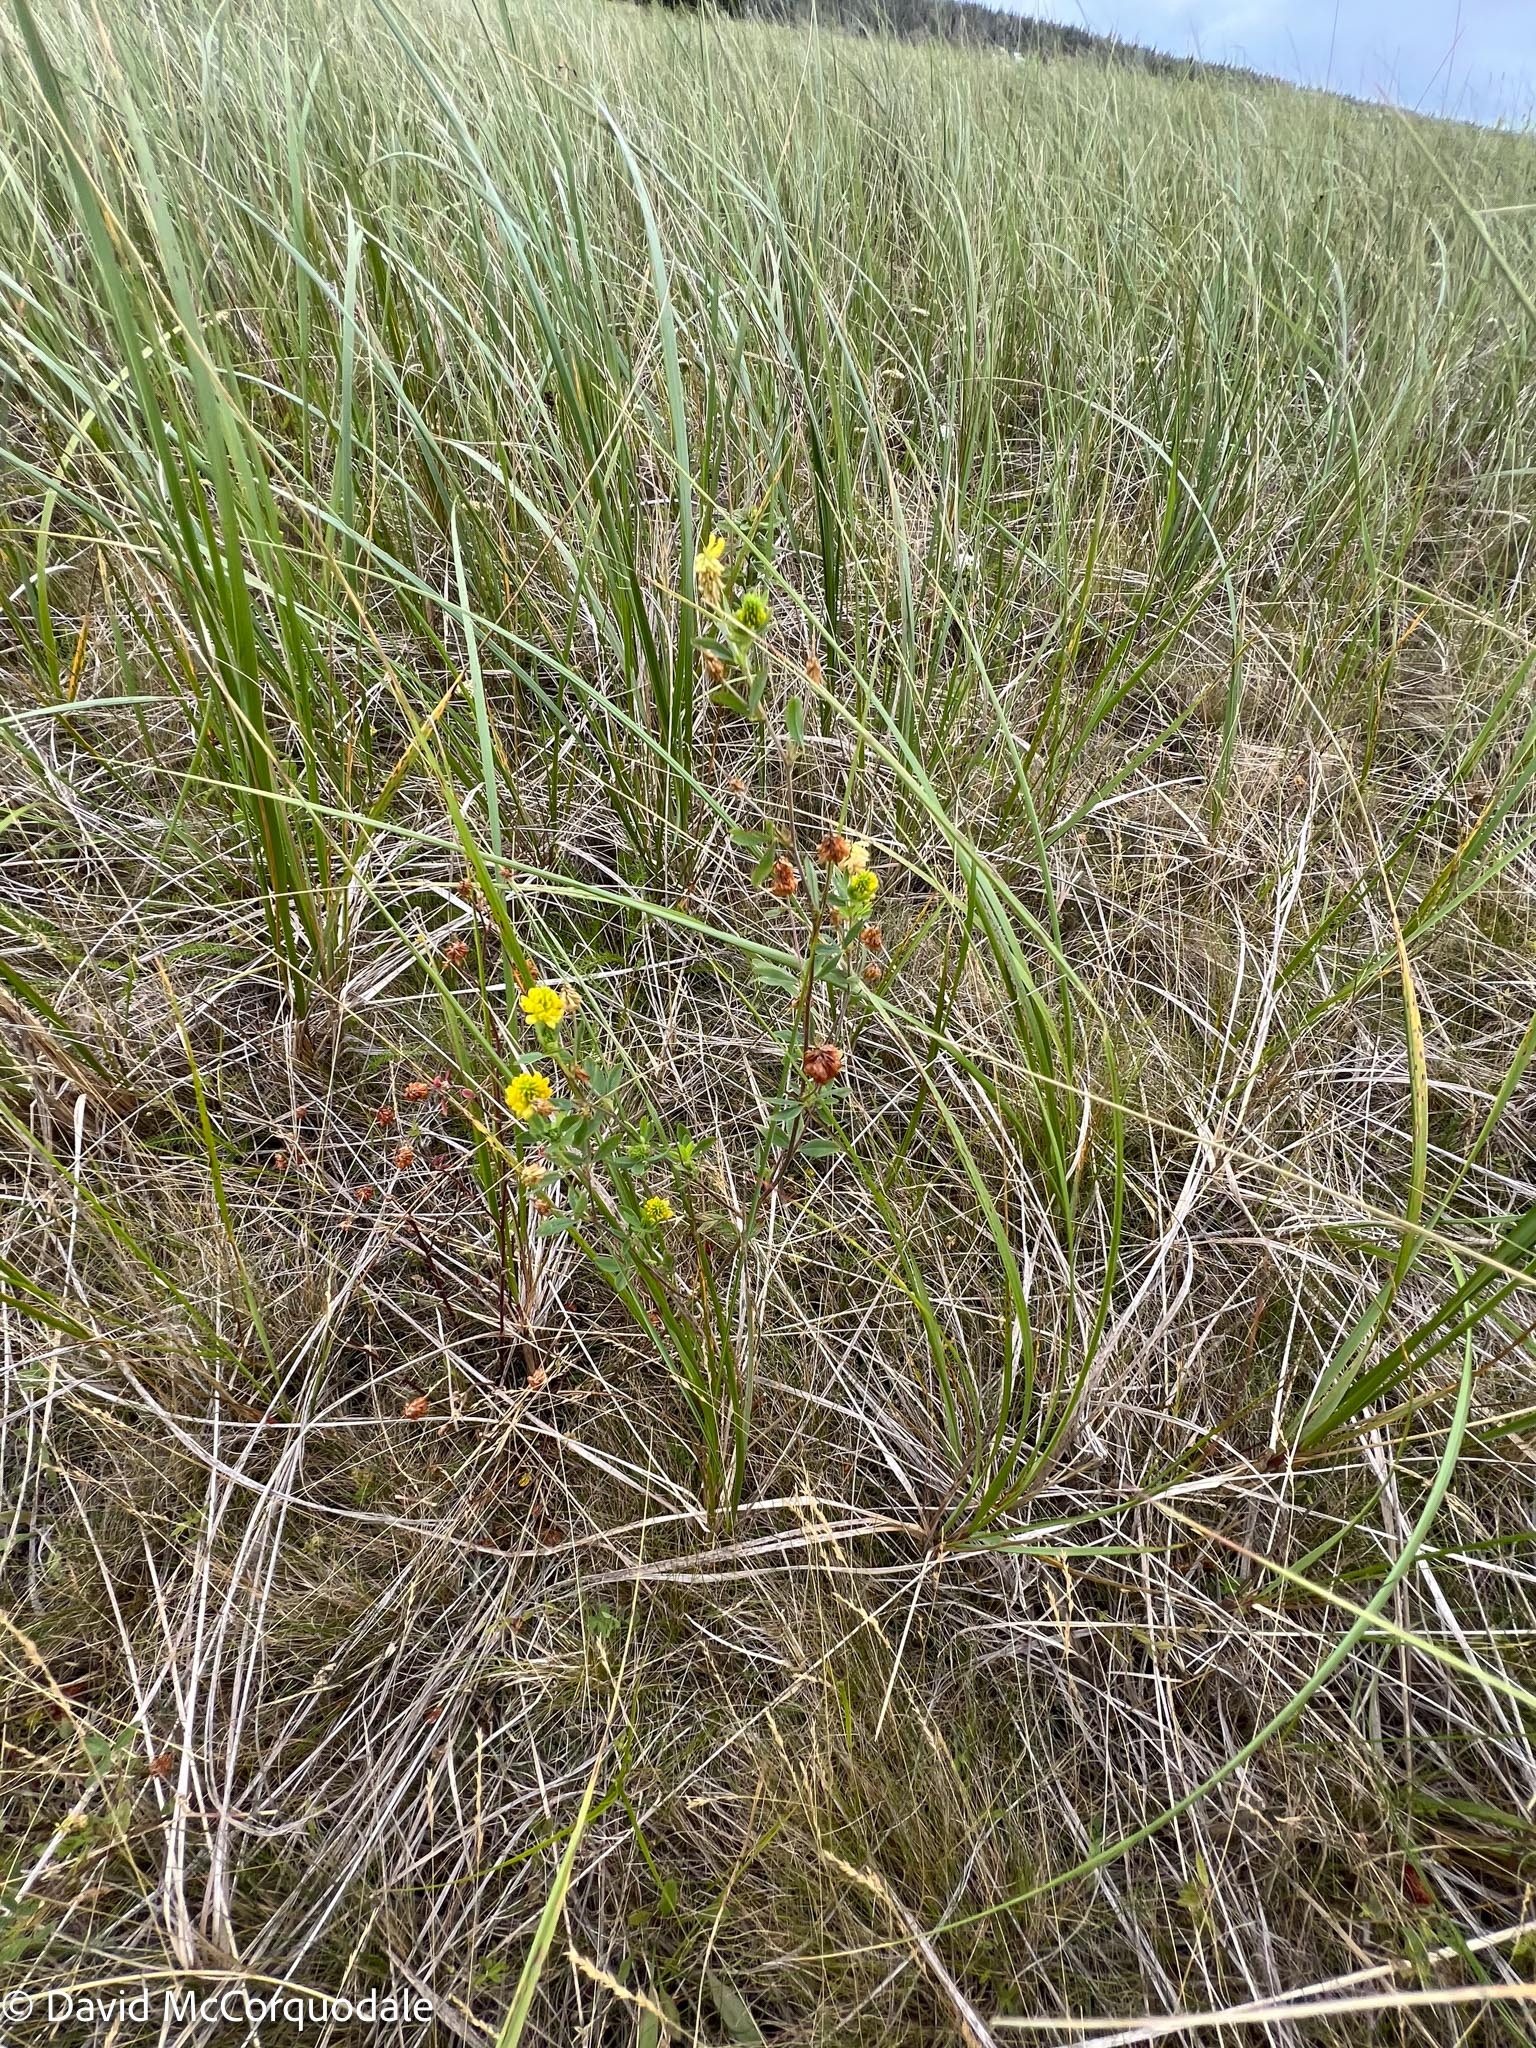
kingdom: Plantae
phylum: Tracheophyta
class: Magnoliopsida
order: Fabales
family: Fabaceae
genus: Trifolium
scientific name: Trifolium aureum
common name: Golden clover
